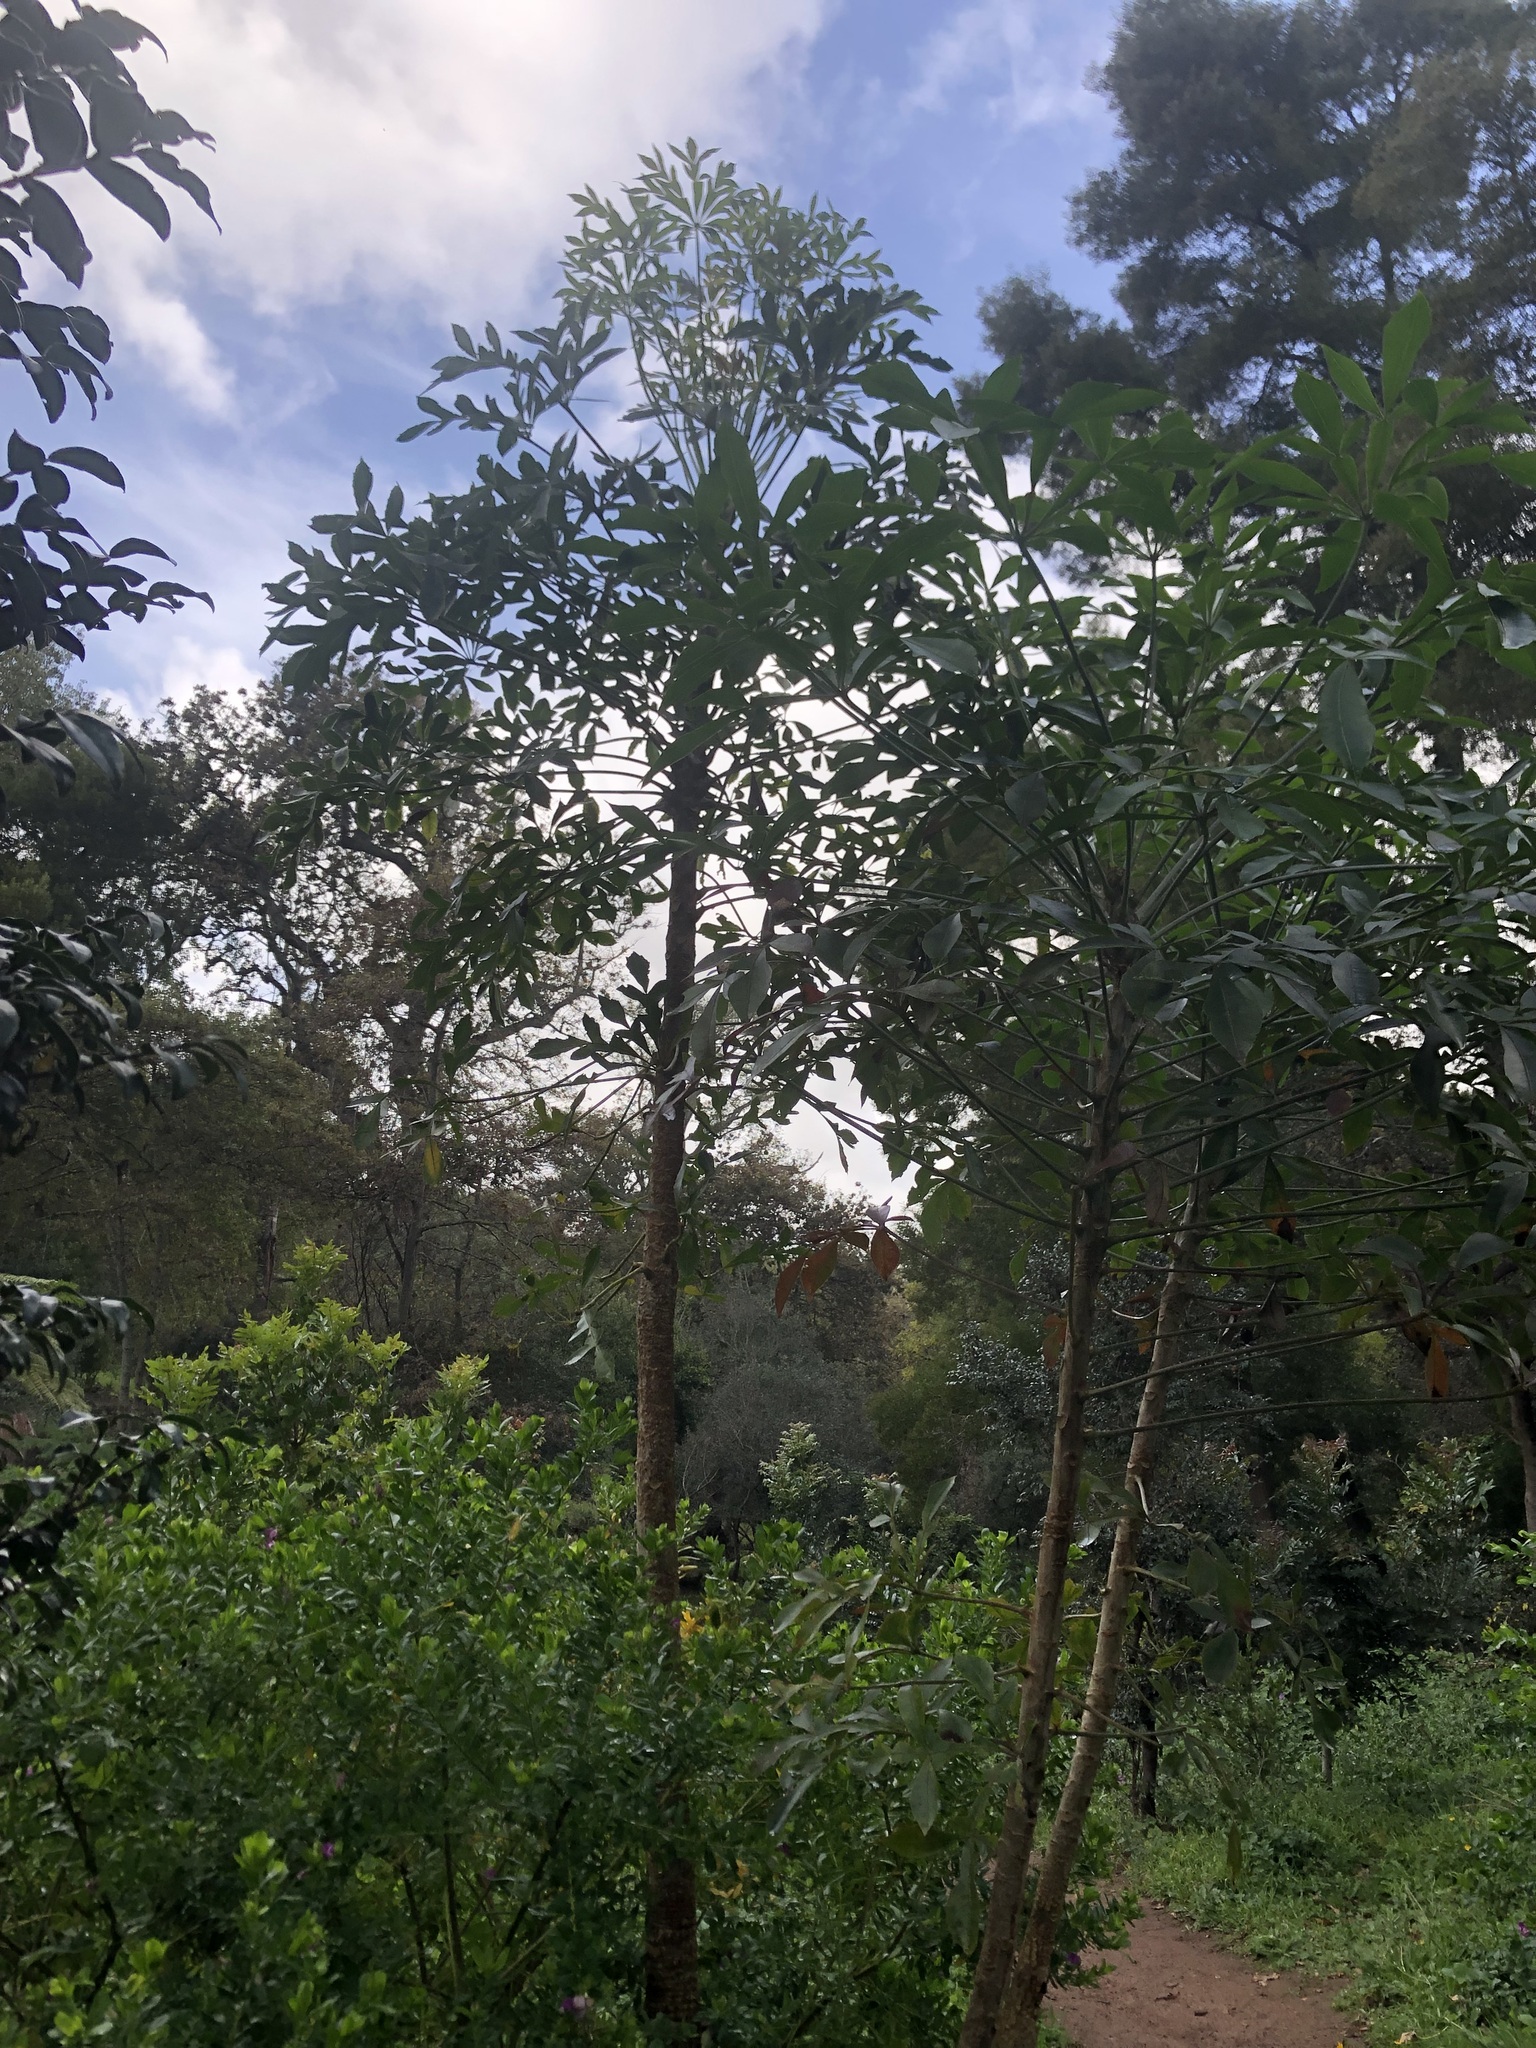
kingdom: Plantae
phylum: Tracheophyta
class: Magnoliopsida
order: Apiales
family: Araliaceae
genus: Cussonia
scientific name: Cussonia spicata
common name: Common cabbagetree
